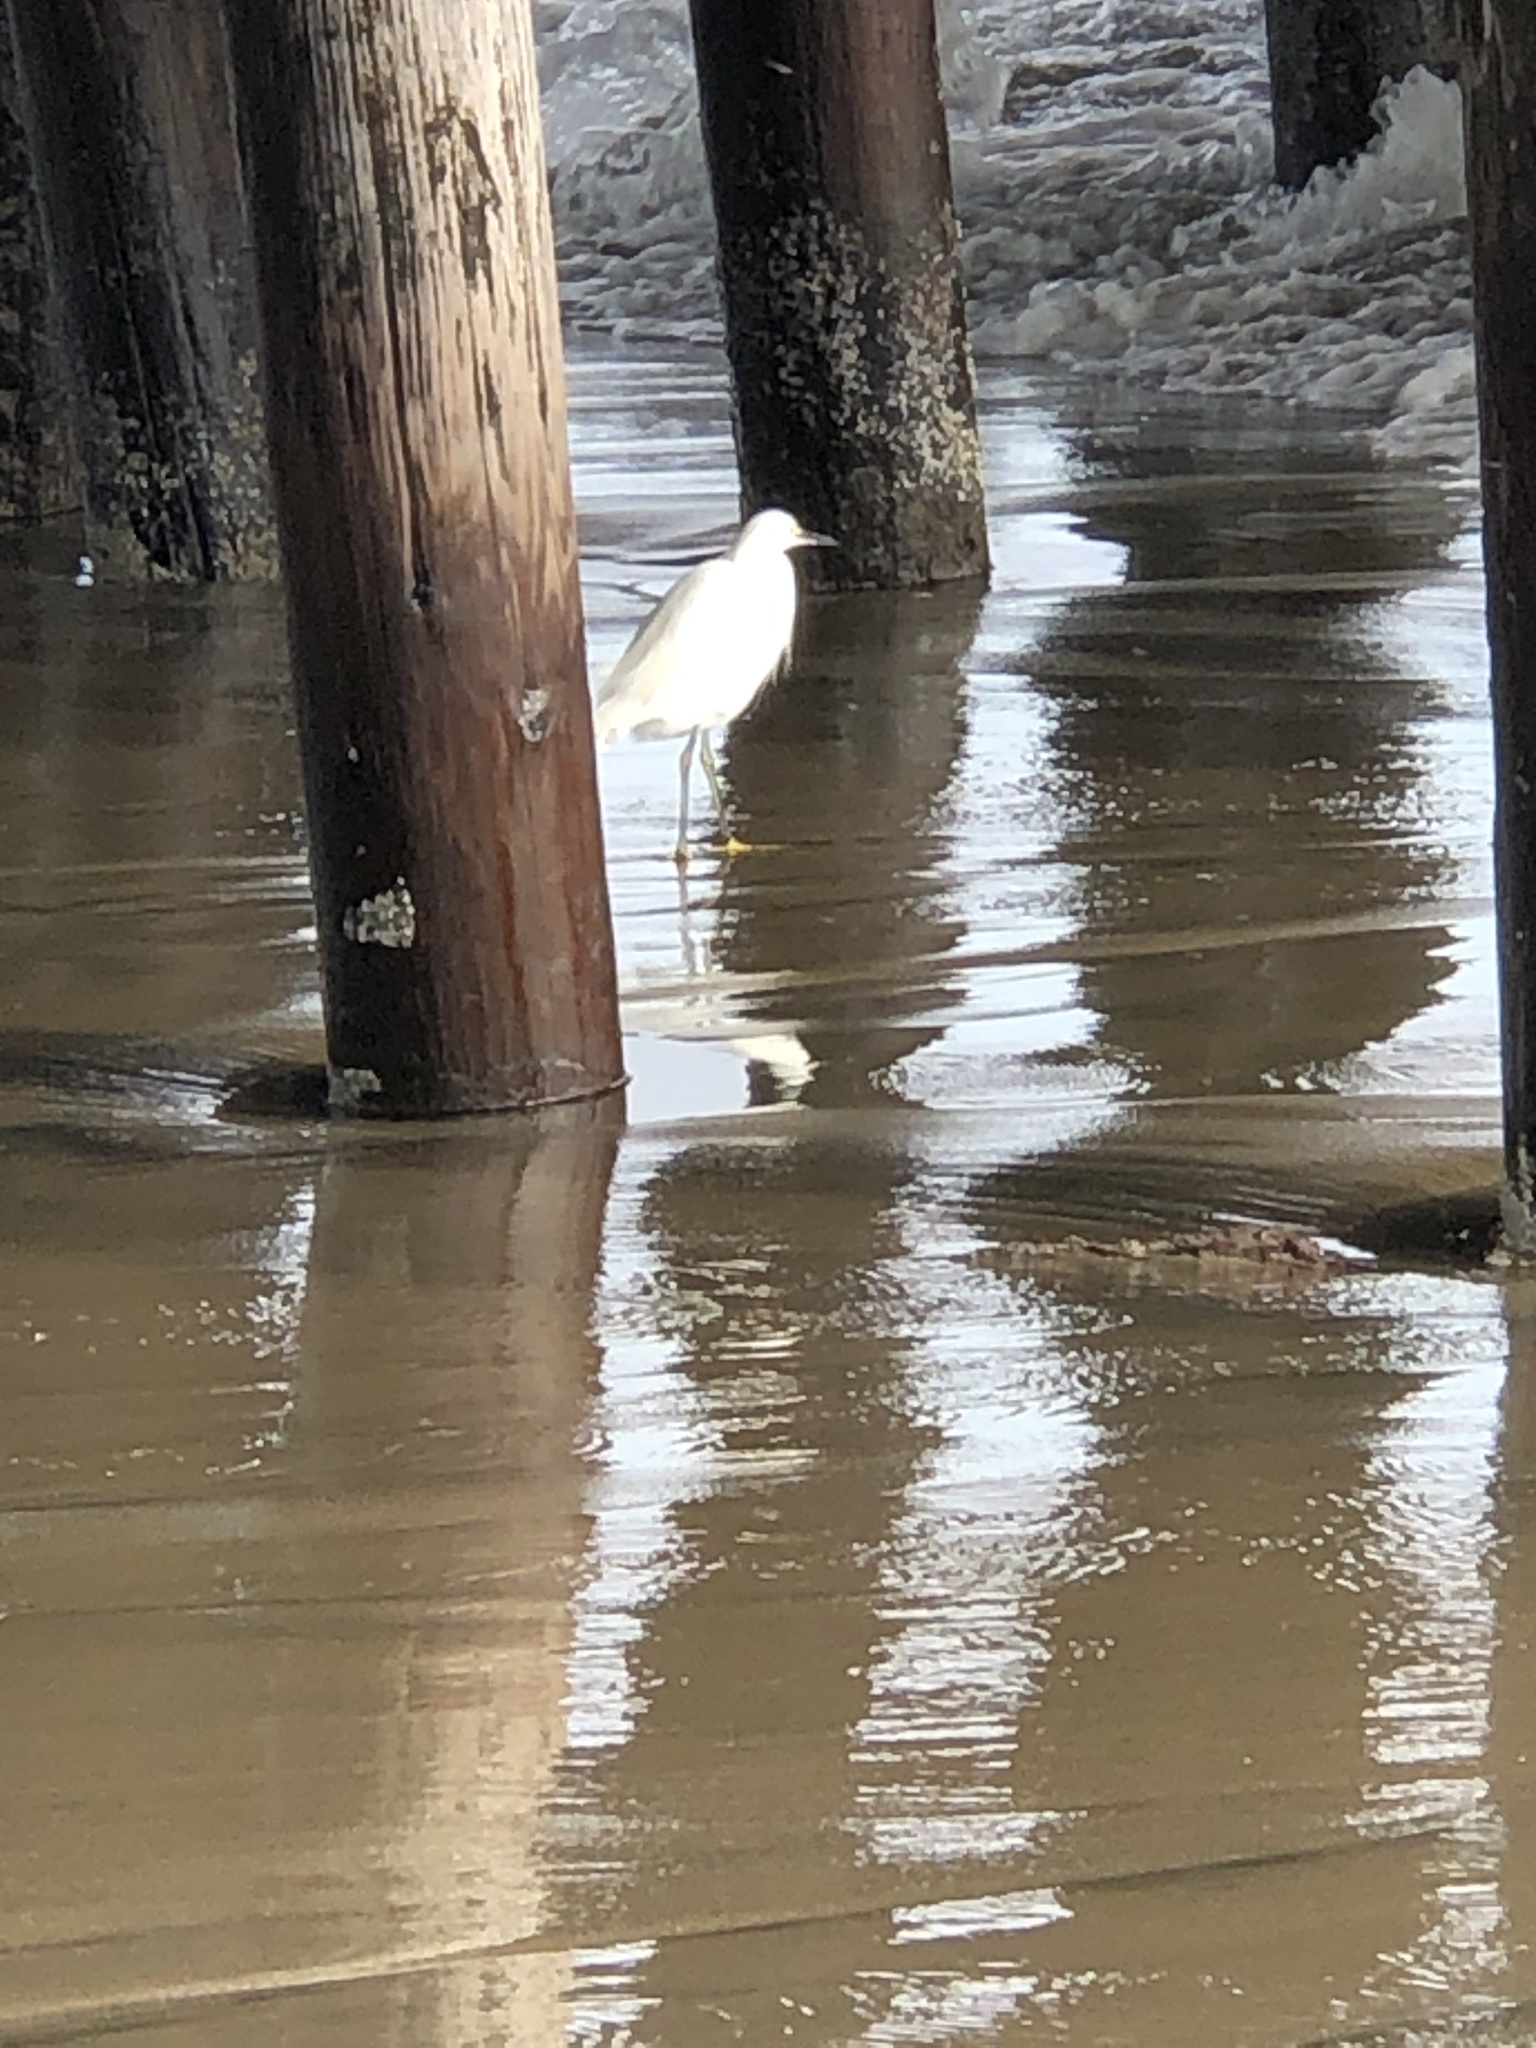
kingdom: Animalia
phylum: Chordata
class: Aves
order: Pelecaniformes
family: Ardeidae
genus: Egretta
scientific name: Egretta thula
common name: Snowy egret
